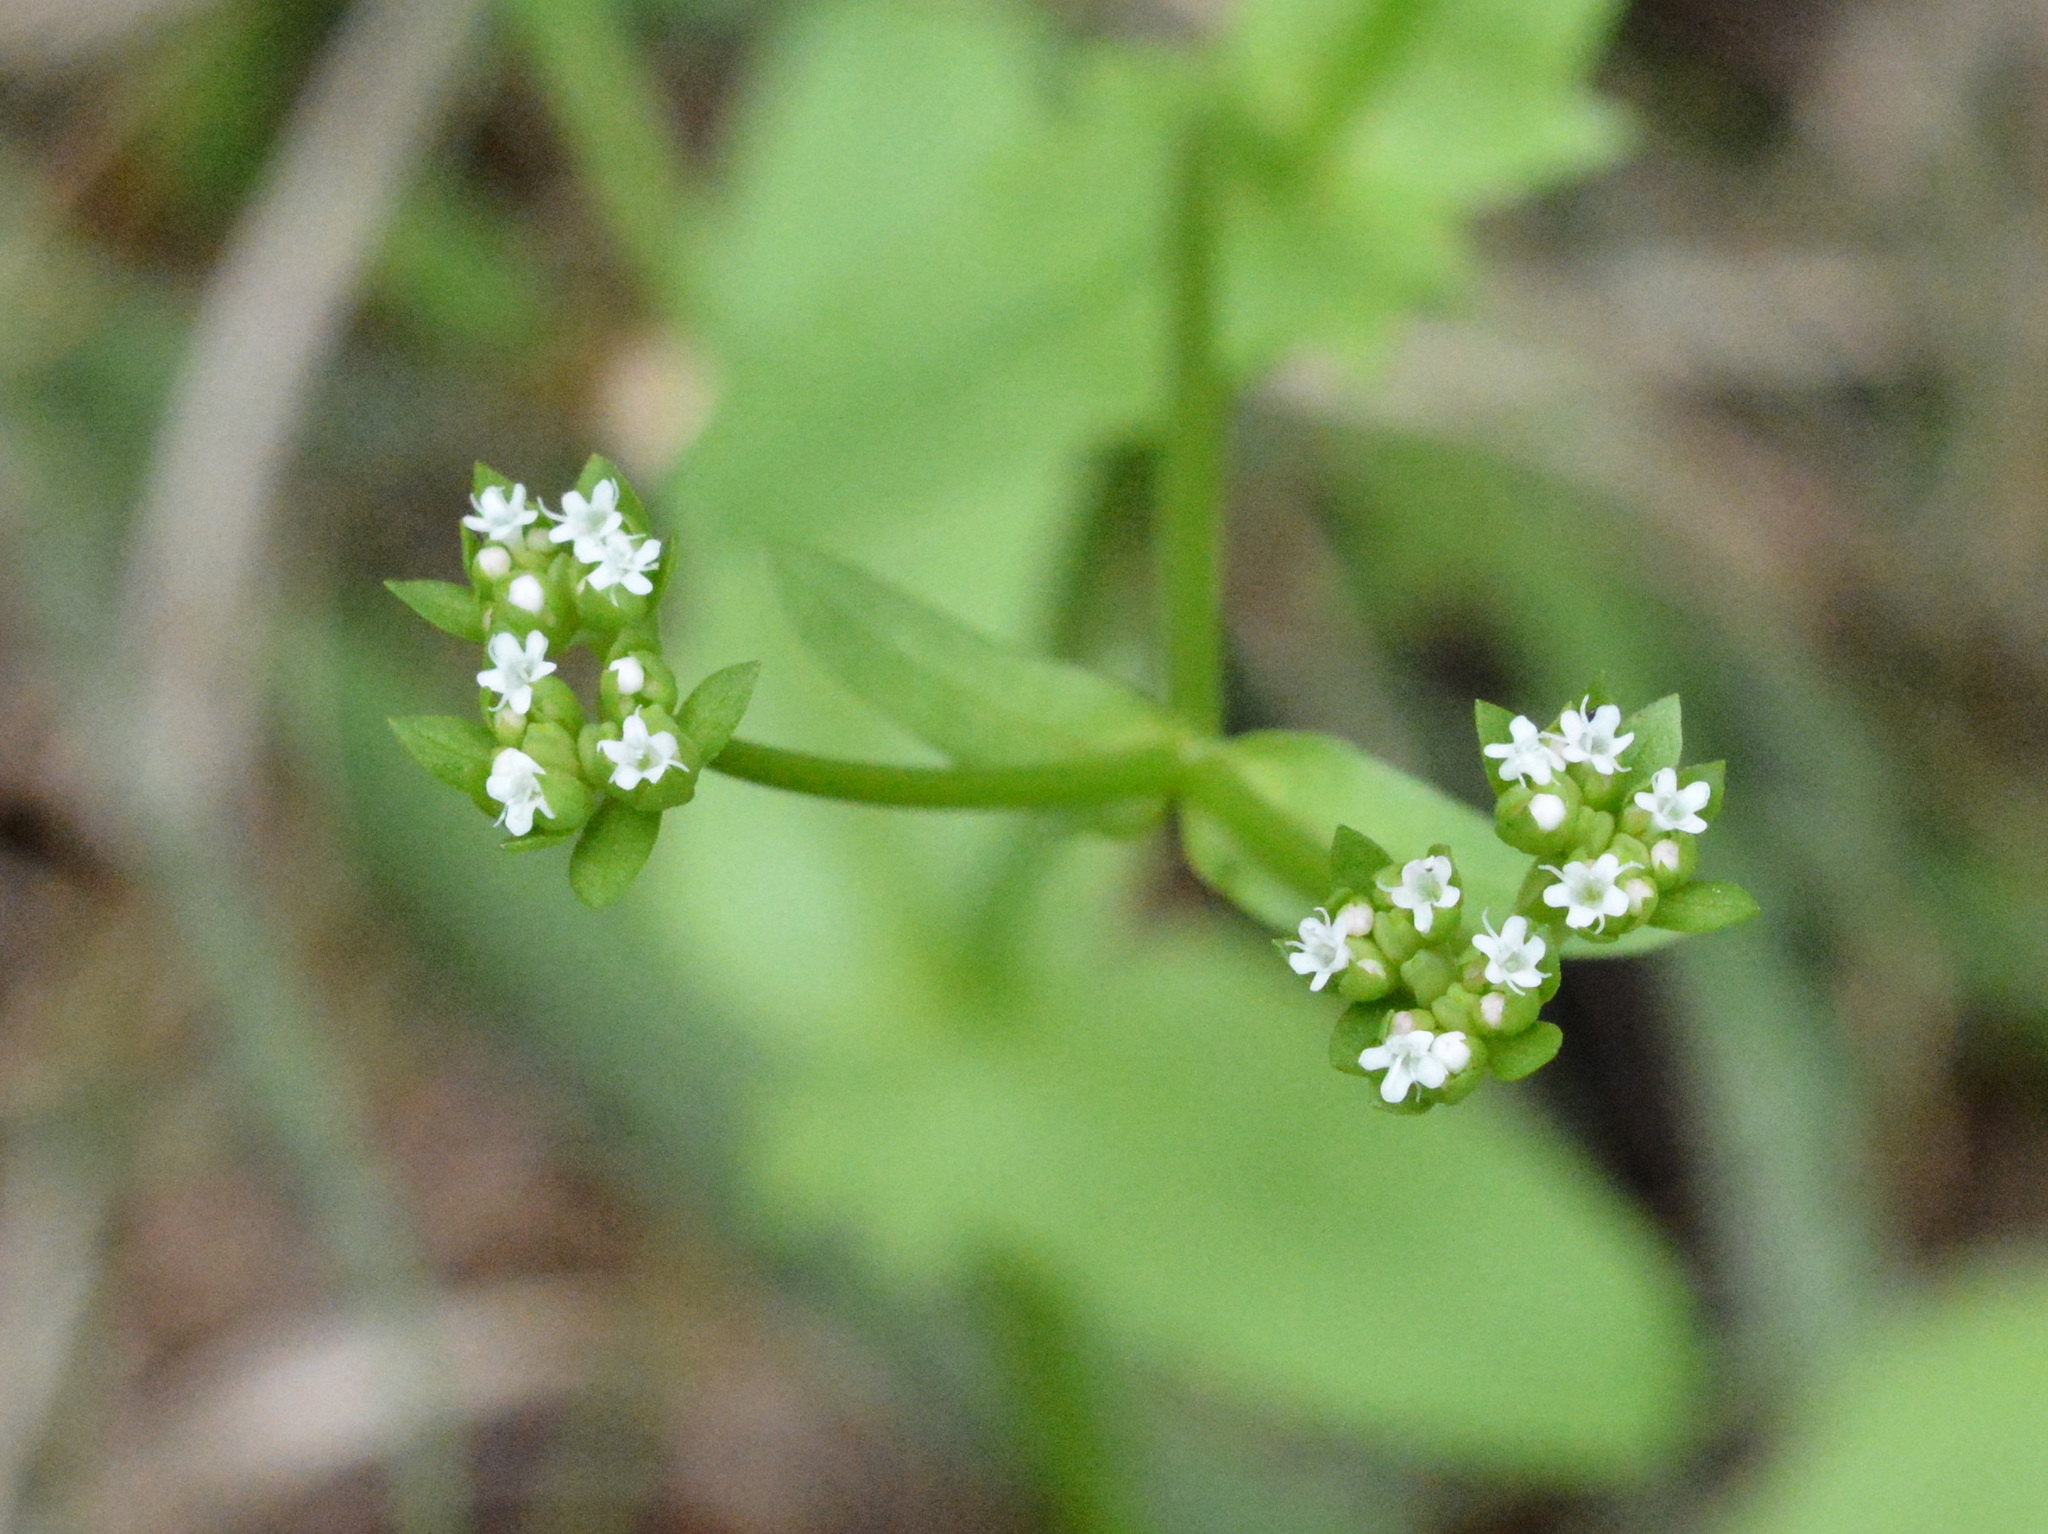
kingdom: Plantae
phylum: Tracheophyta
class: Magnoliopsida
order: Dipsacales
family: Caprifoliaceae
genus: Valerianella
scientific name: Valerianella radiata
